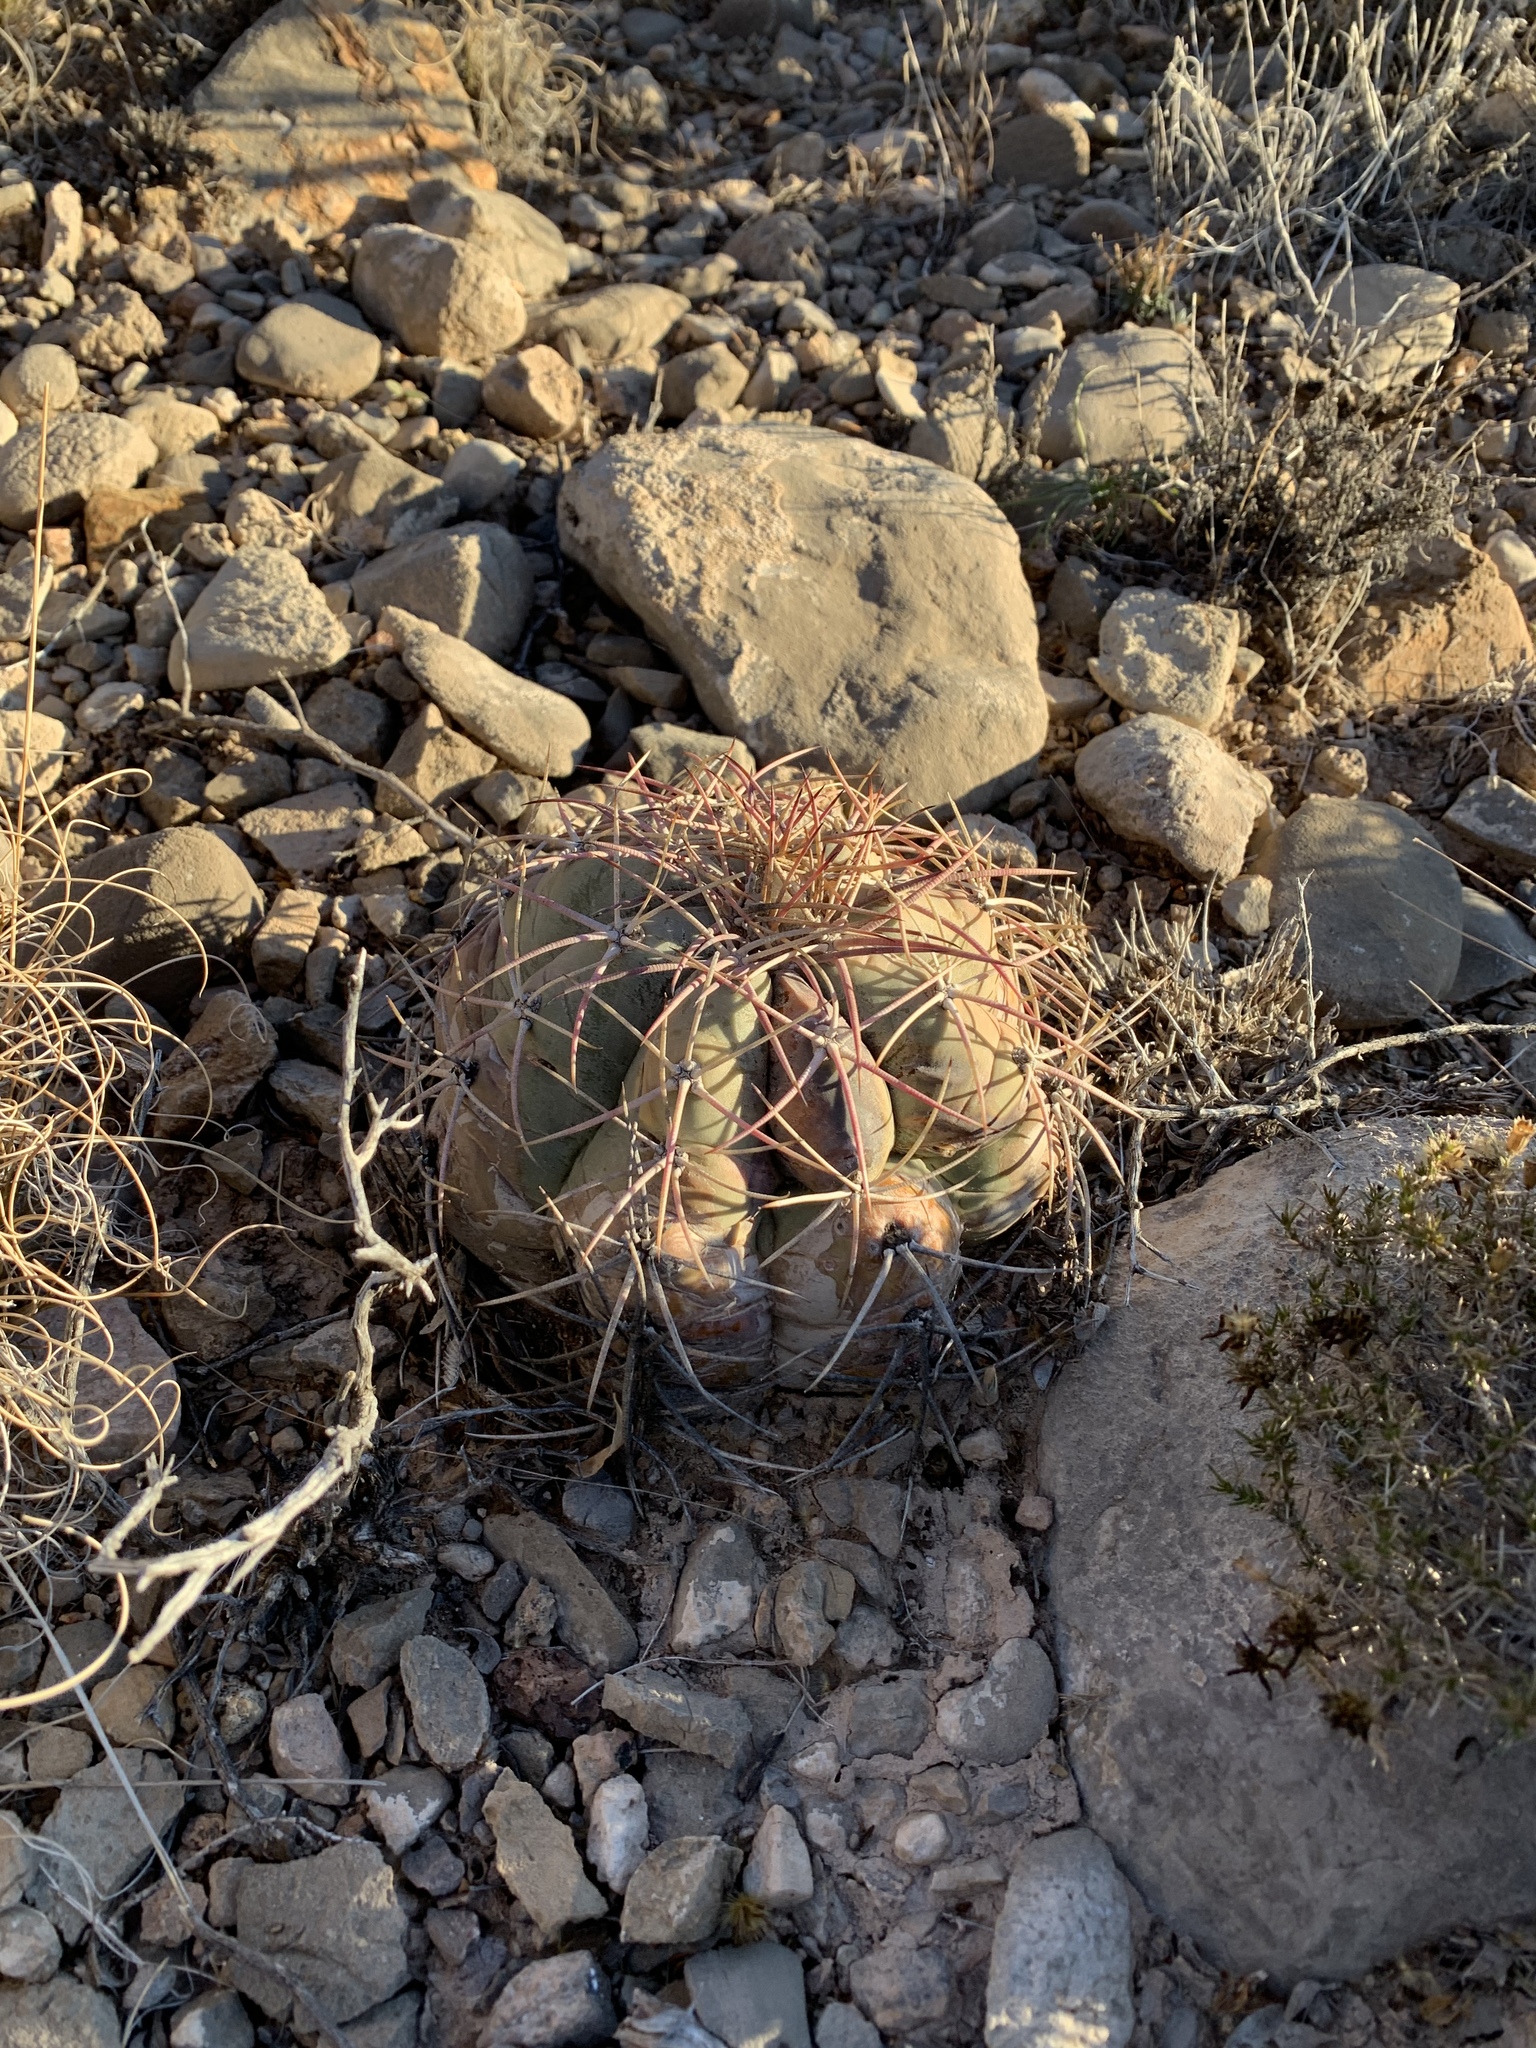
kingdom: Plantae
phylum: Tracheophyta
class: Magnoliopsida
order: Caryophyllales
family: Cactaceae
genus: Echinocactus
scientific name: Echinocactus horizonthalonius
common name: Devilshead
